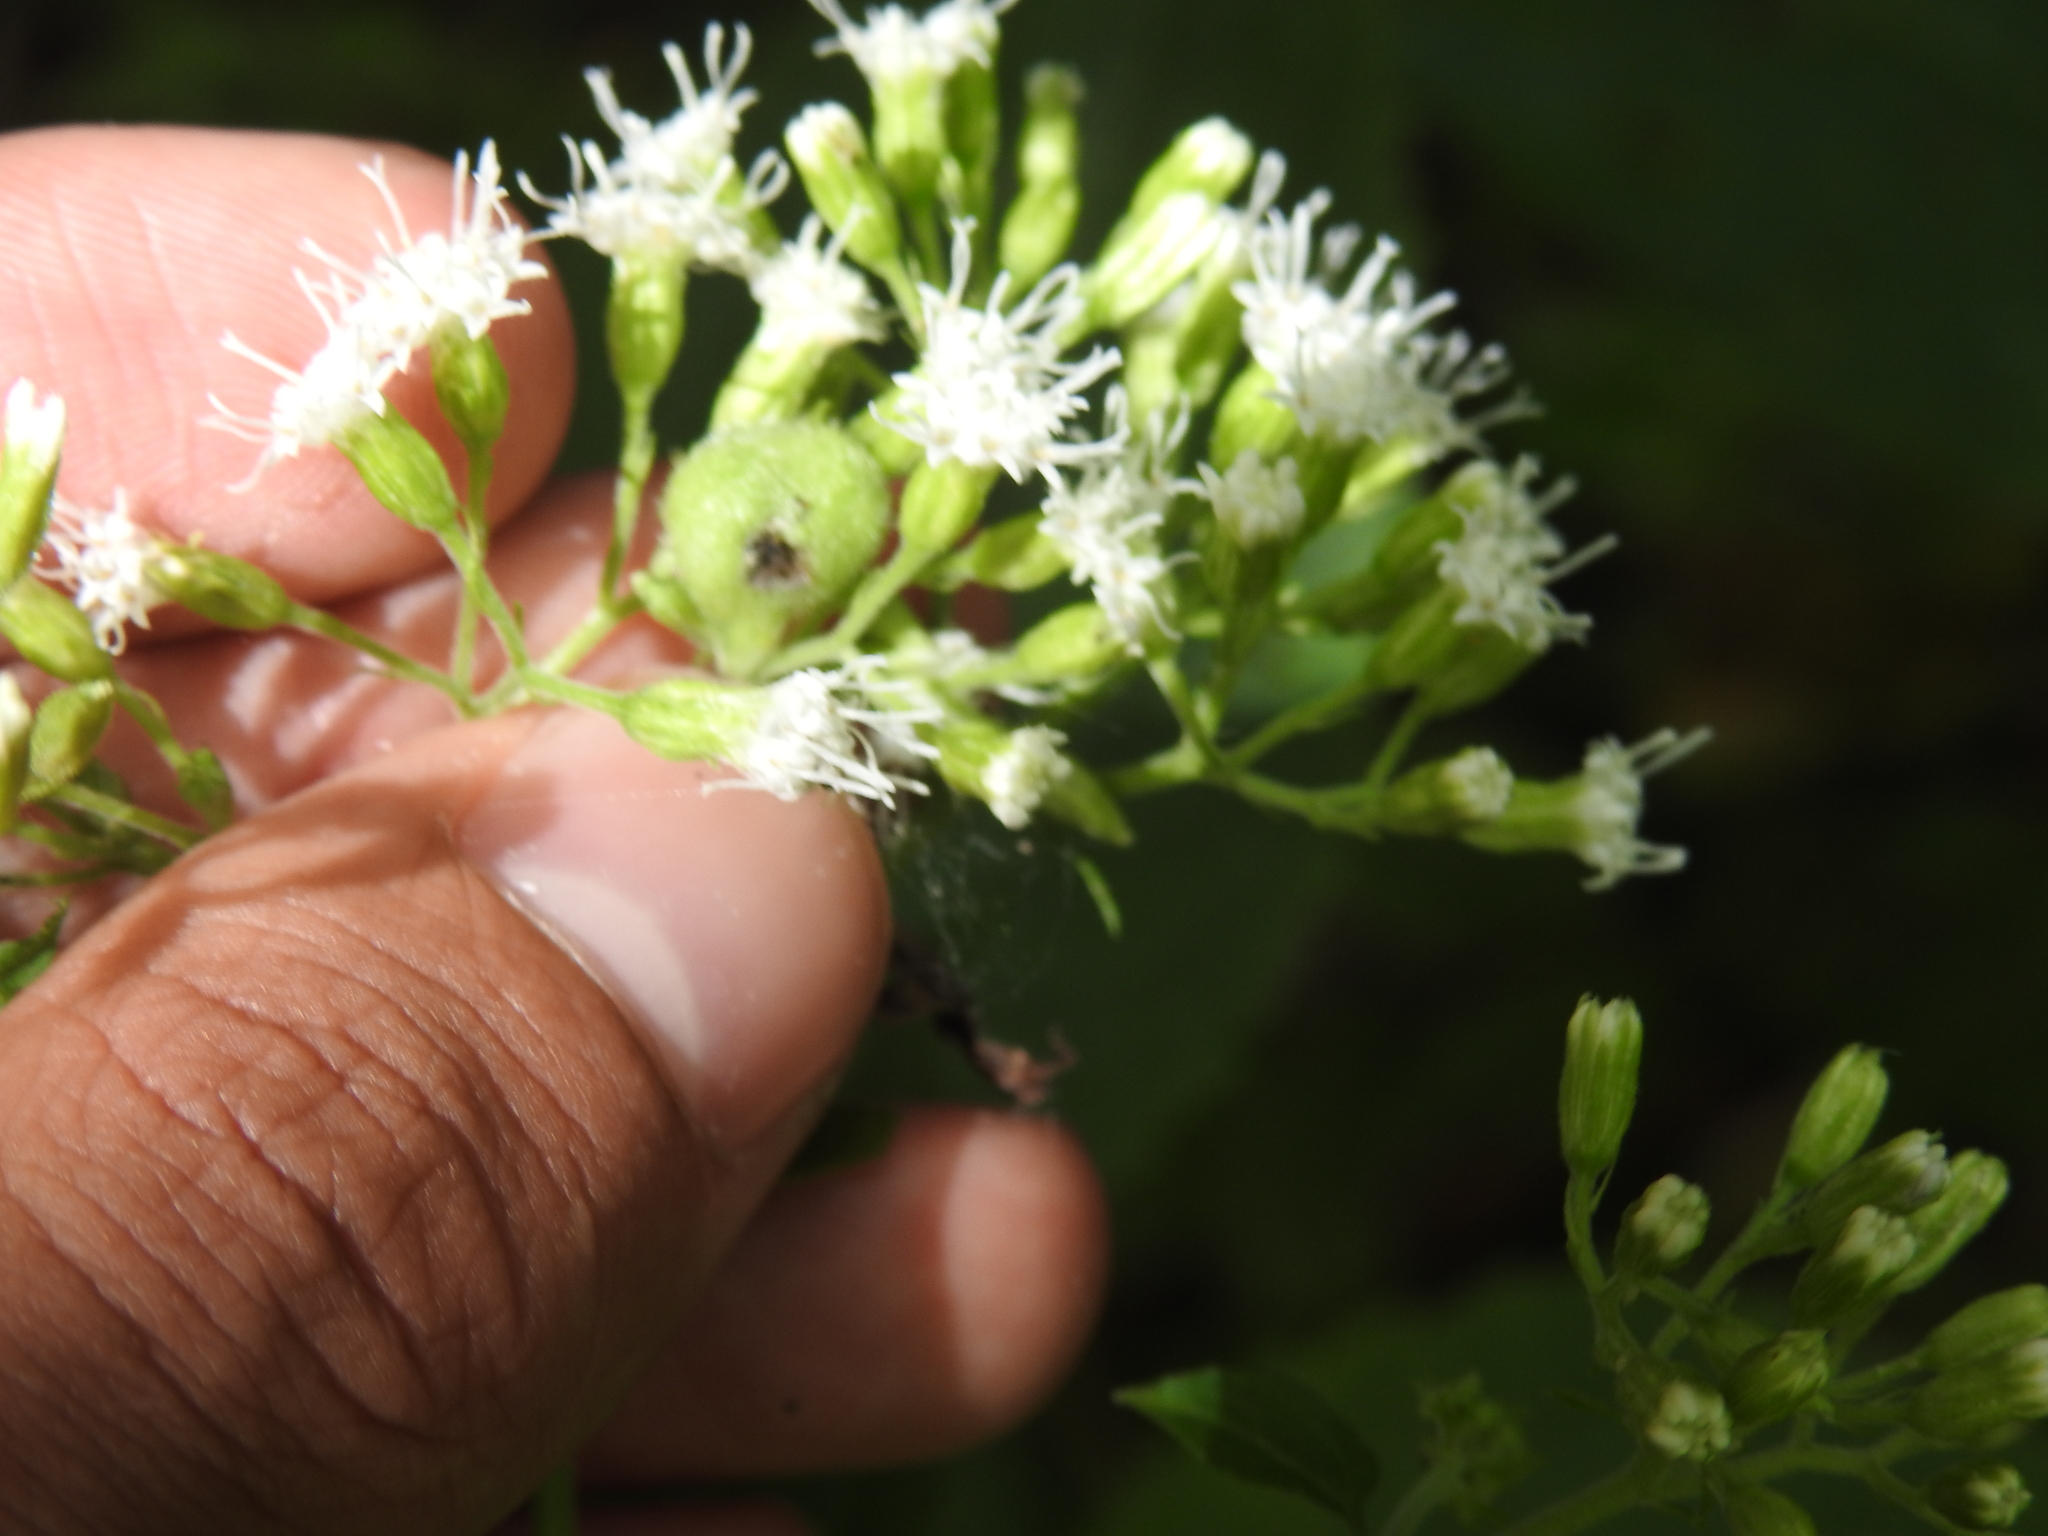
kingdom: Animalia
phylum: Arthropoda
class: Insecta
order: Diptera
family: Cecidomyiidae
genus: Schizomyia
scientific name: Schizomyia eupatoriflorae
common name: Boneset flower gall midge
